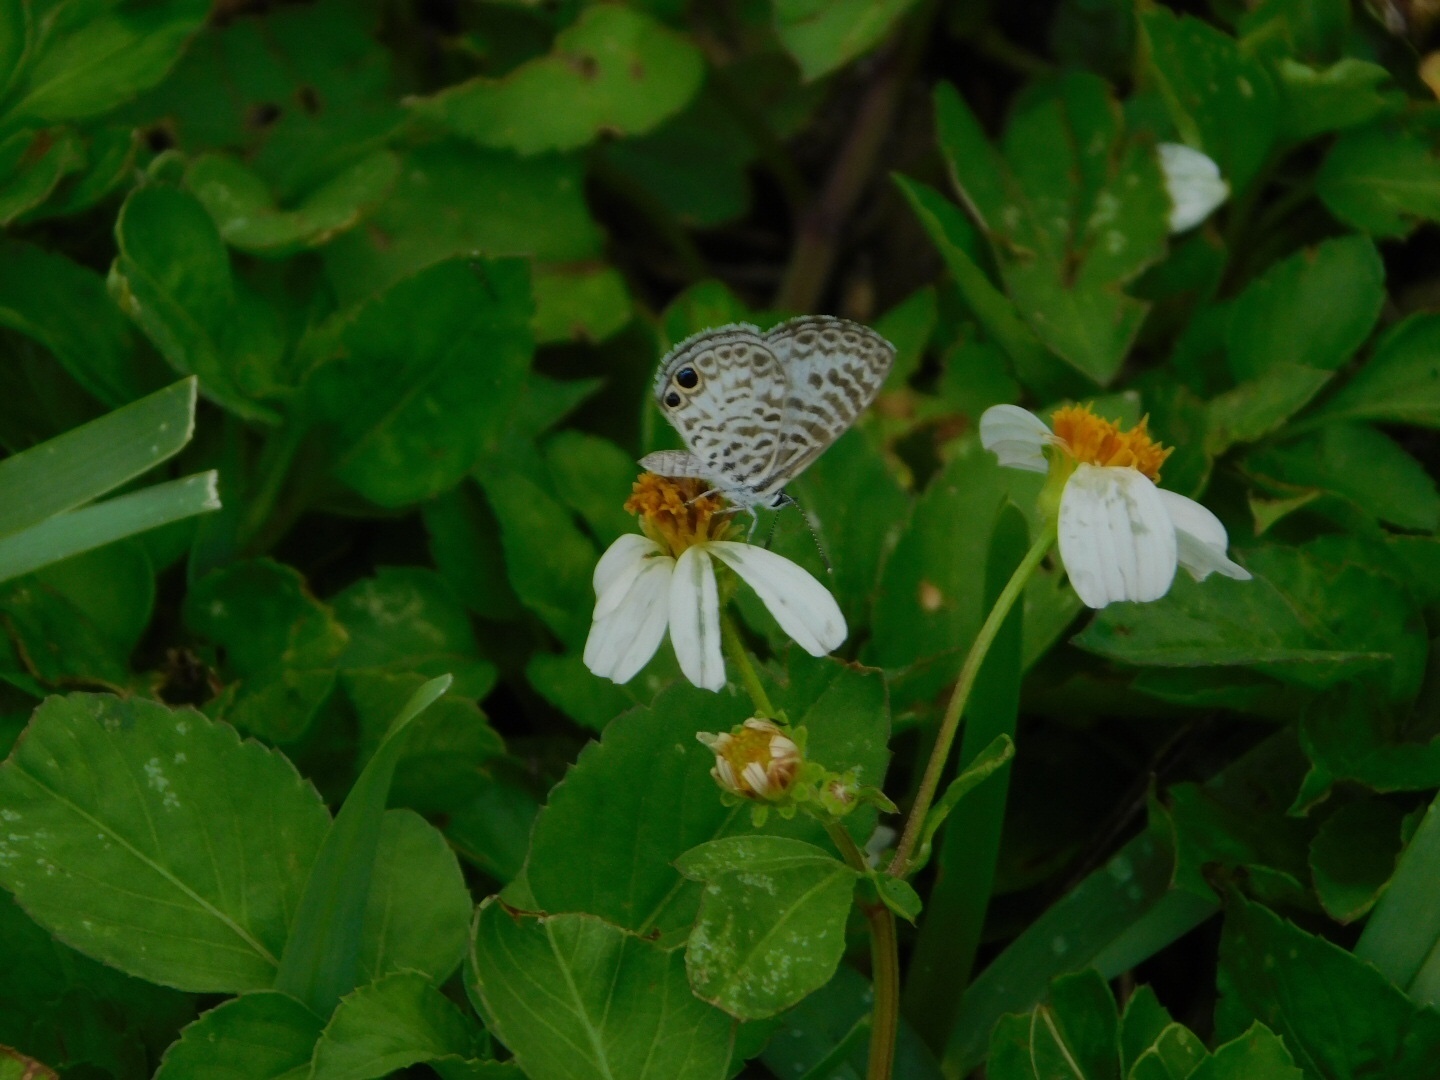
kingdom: Animalia
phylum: Arthropoda
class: Insecta
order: Lepidoptera
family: Lycaenidae
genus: Leptotes
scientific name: Leptotes cassius
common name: Cassius blue
